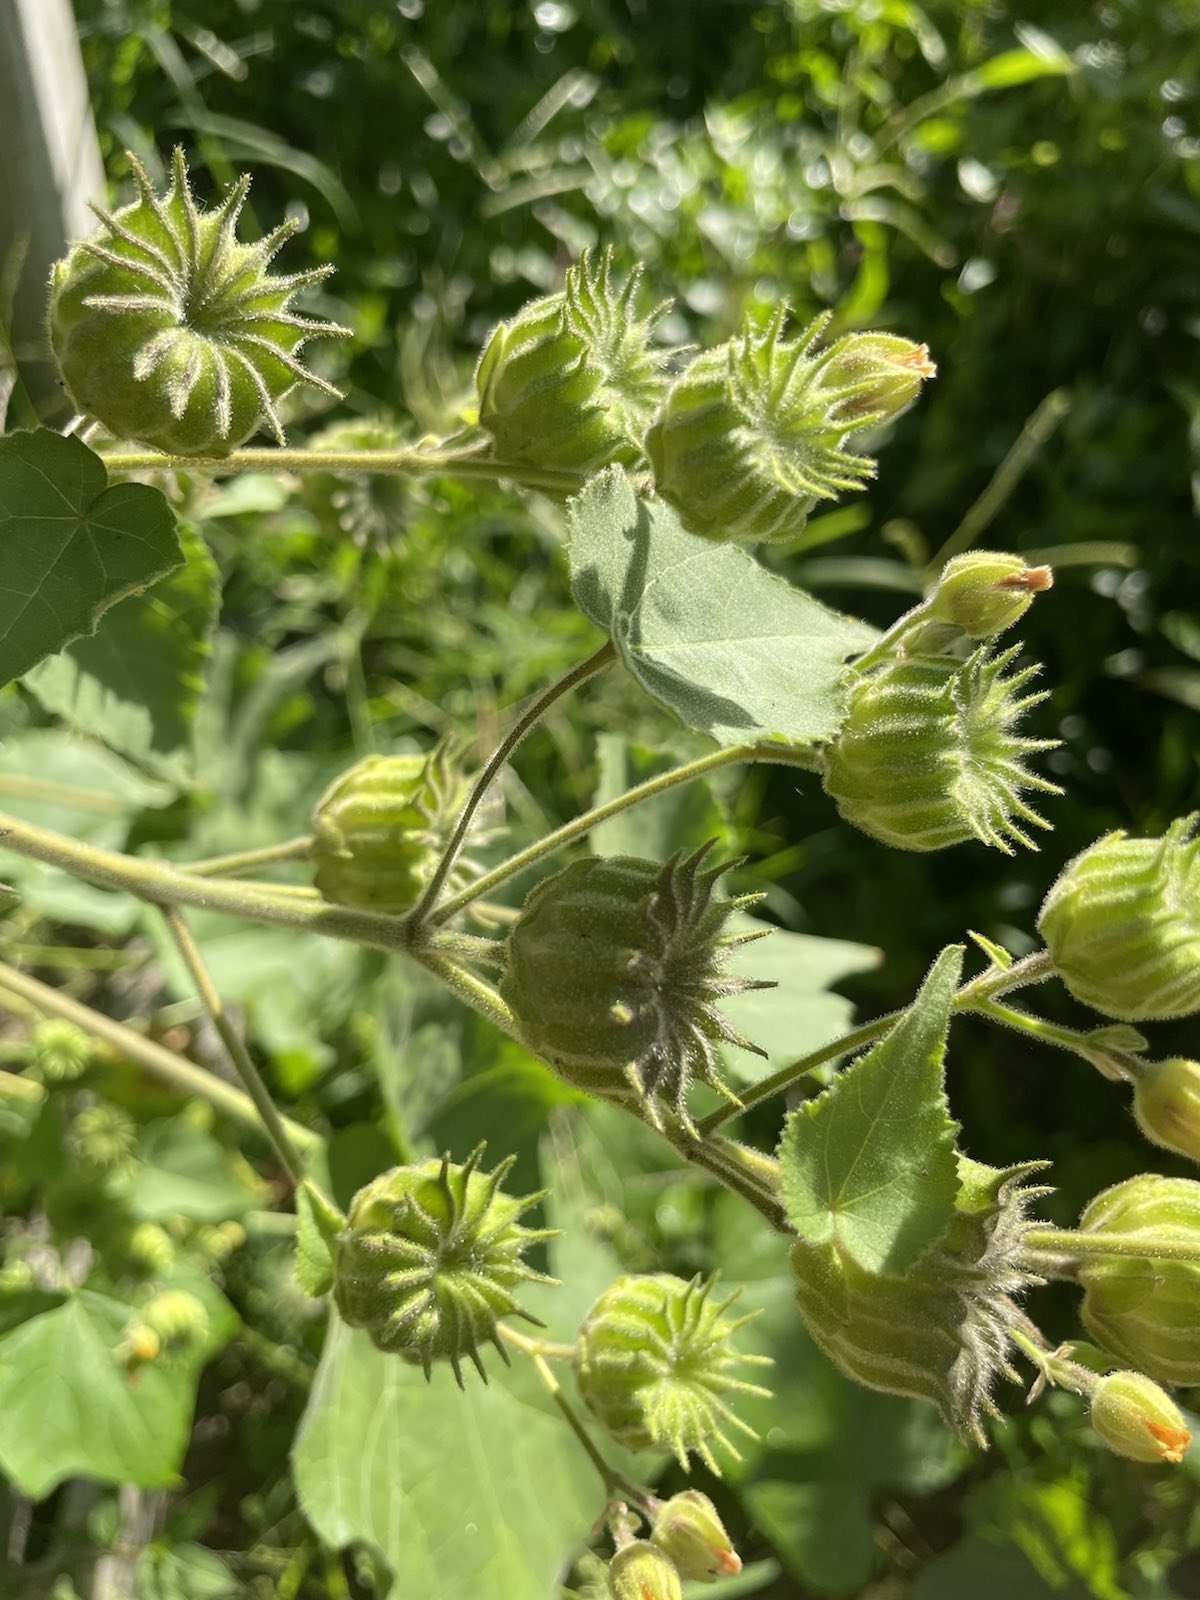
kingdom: Plantae
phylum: Tracheophyta
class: Magnoliopsida
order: Malvales
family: Malvaceae
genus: Abutilon
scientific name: Abutilon theophrasti
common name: Velvetleaf
